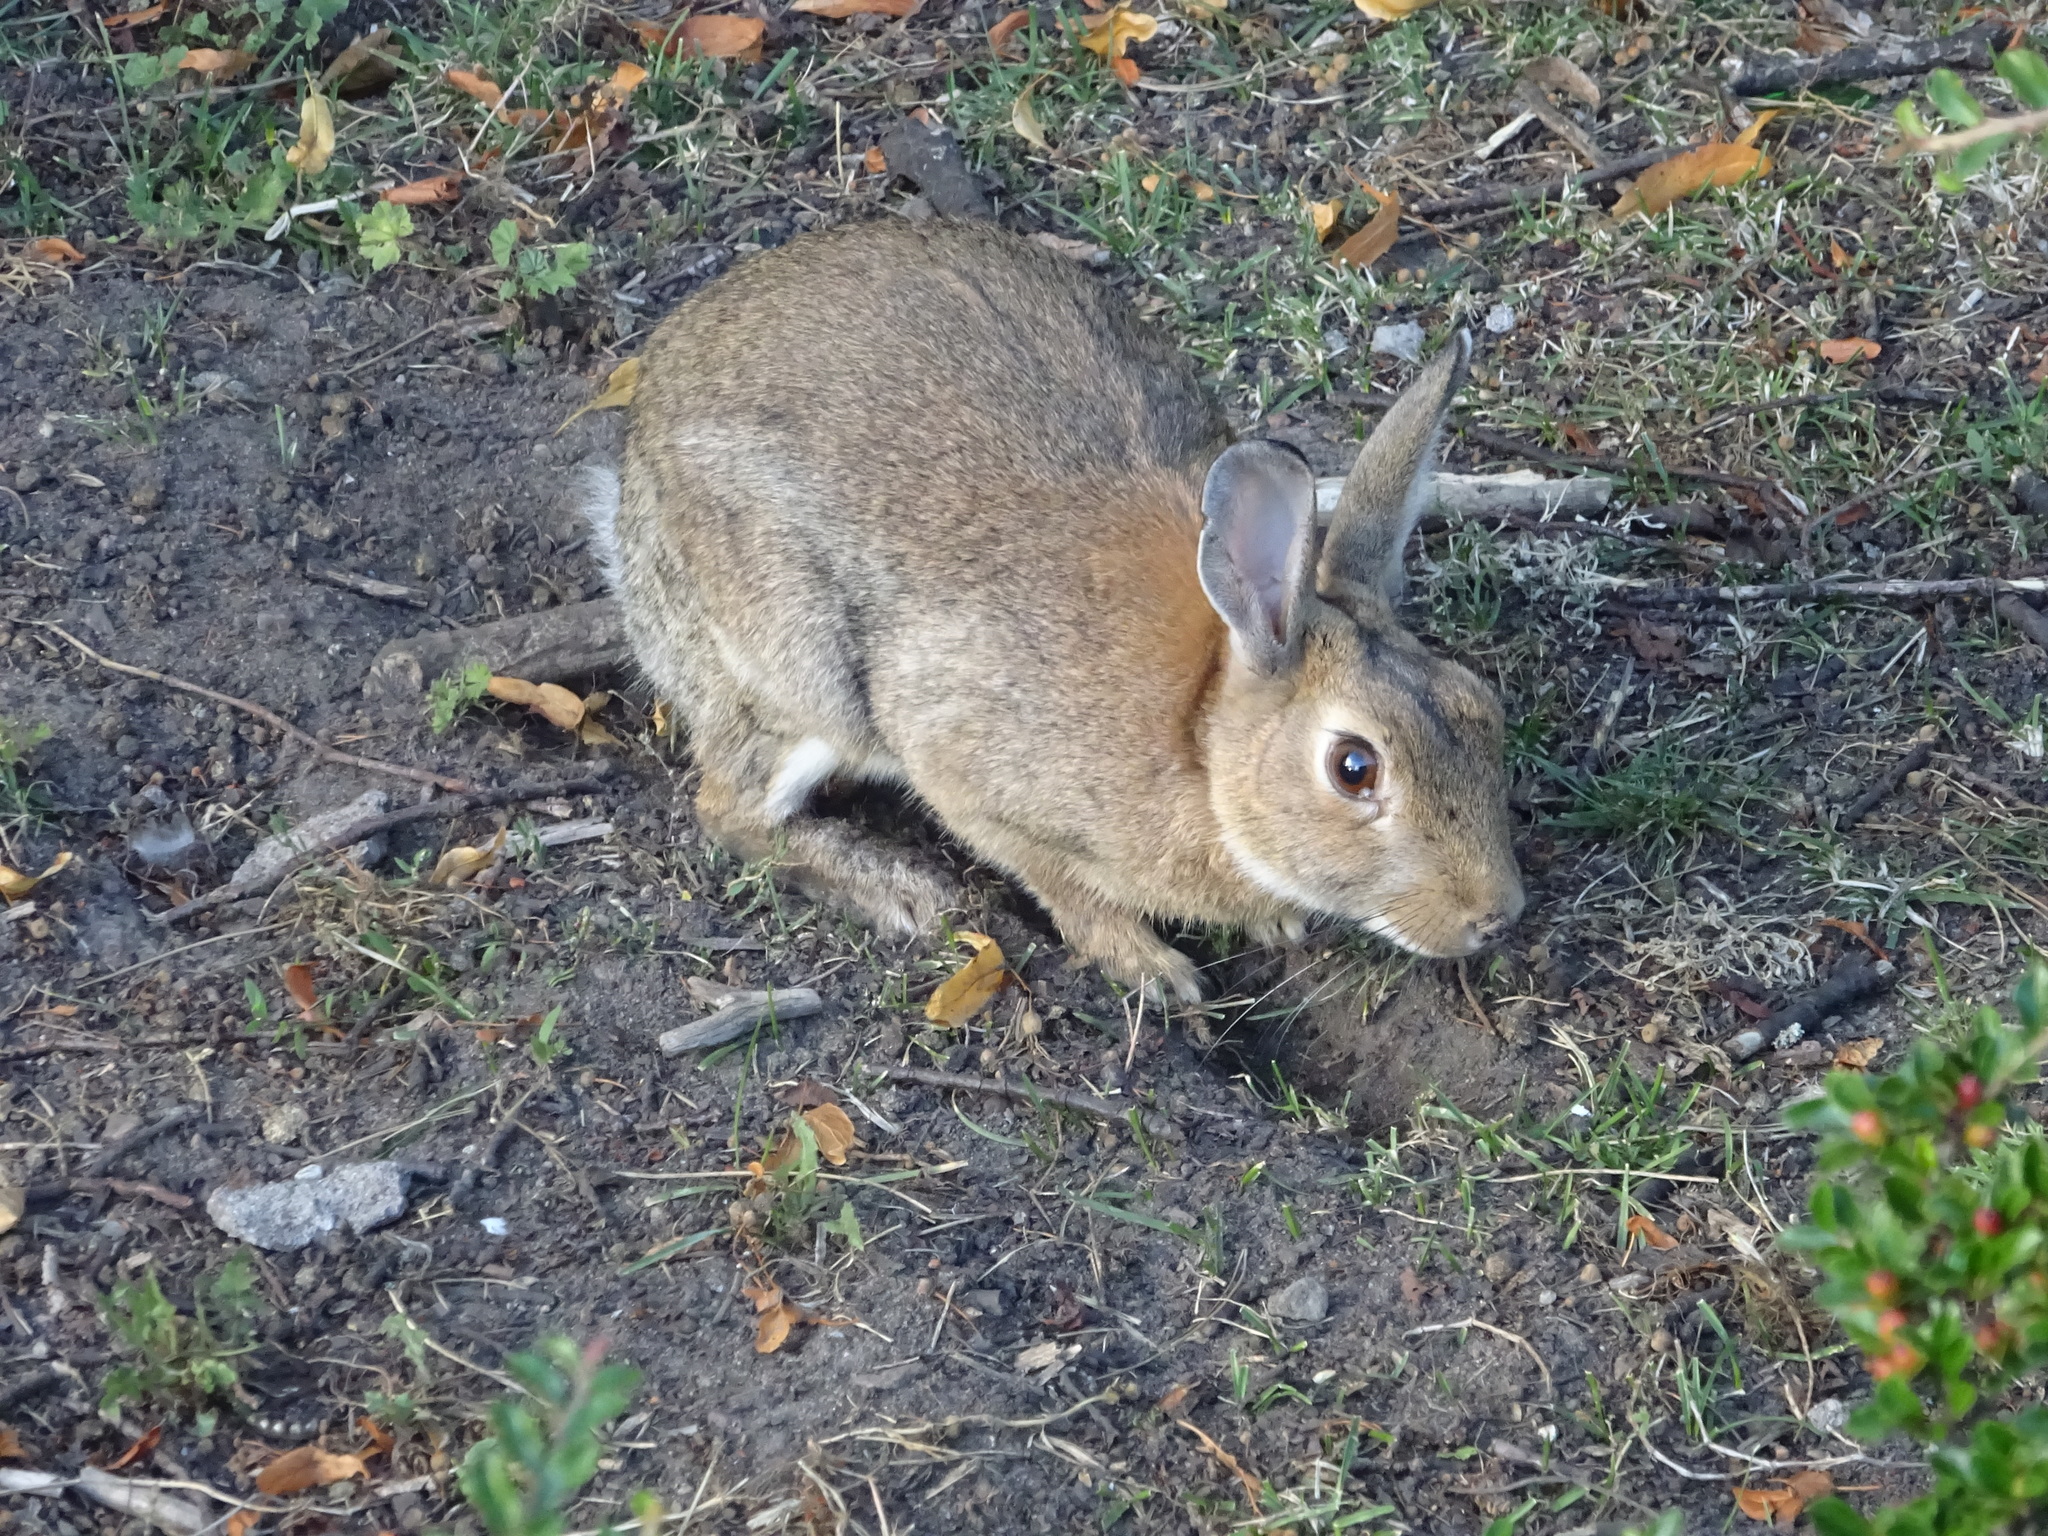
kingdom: Animalia
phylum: Chordata
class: Mammalia
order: Lagomorpha
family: Leporidae
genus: Oryctolagus
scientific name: Oryctolagus cuniculus
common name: European rabbit
